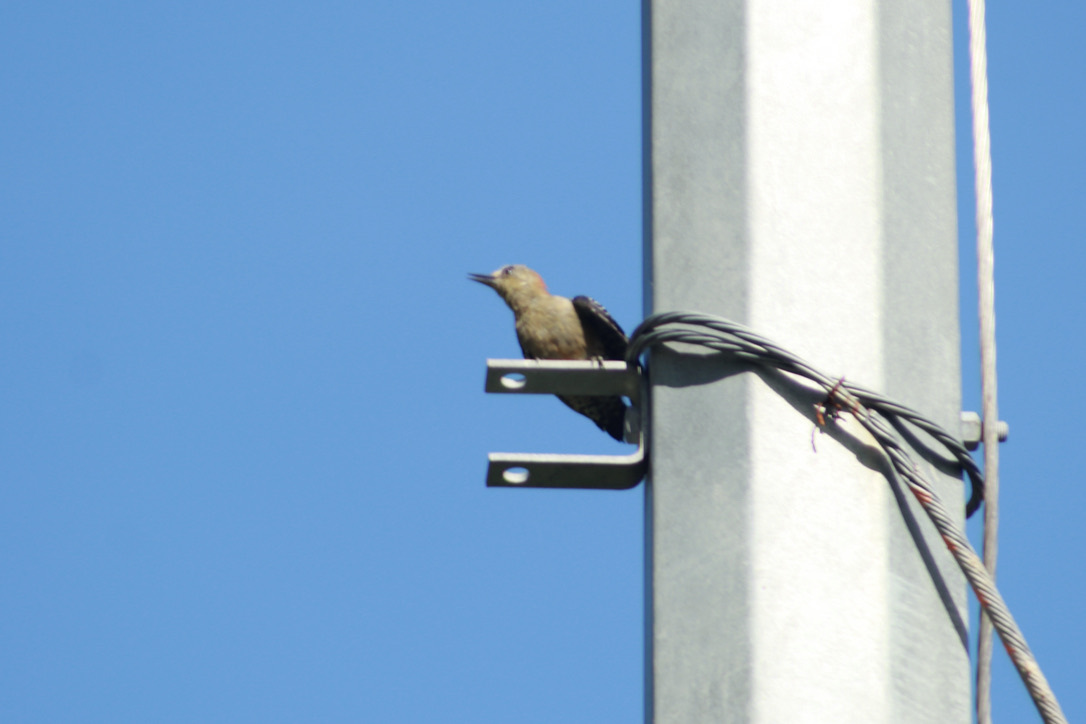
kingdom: Animalia
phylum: Chordata
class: Aves
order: Piciformes
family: Picidae
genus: Melanerpes
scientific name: Melanerpes rubricapillus
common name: Red-crowned woodpecker
